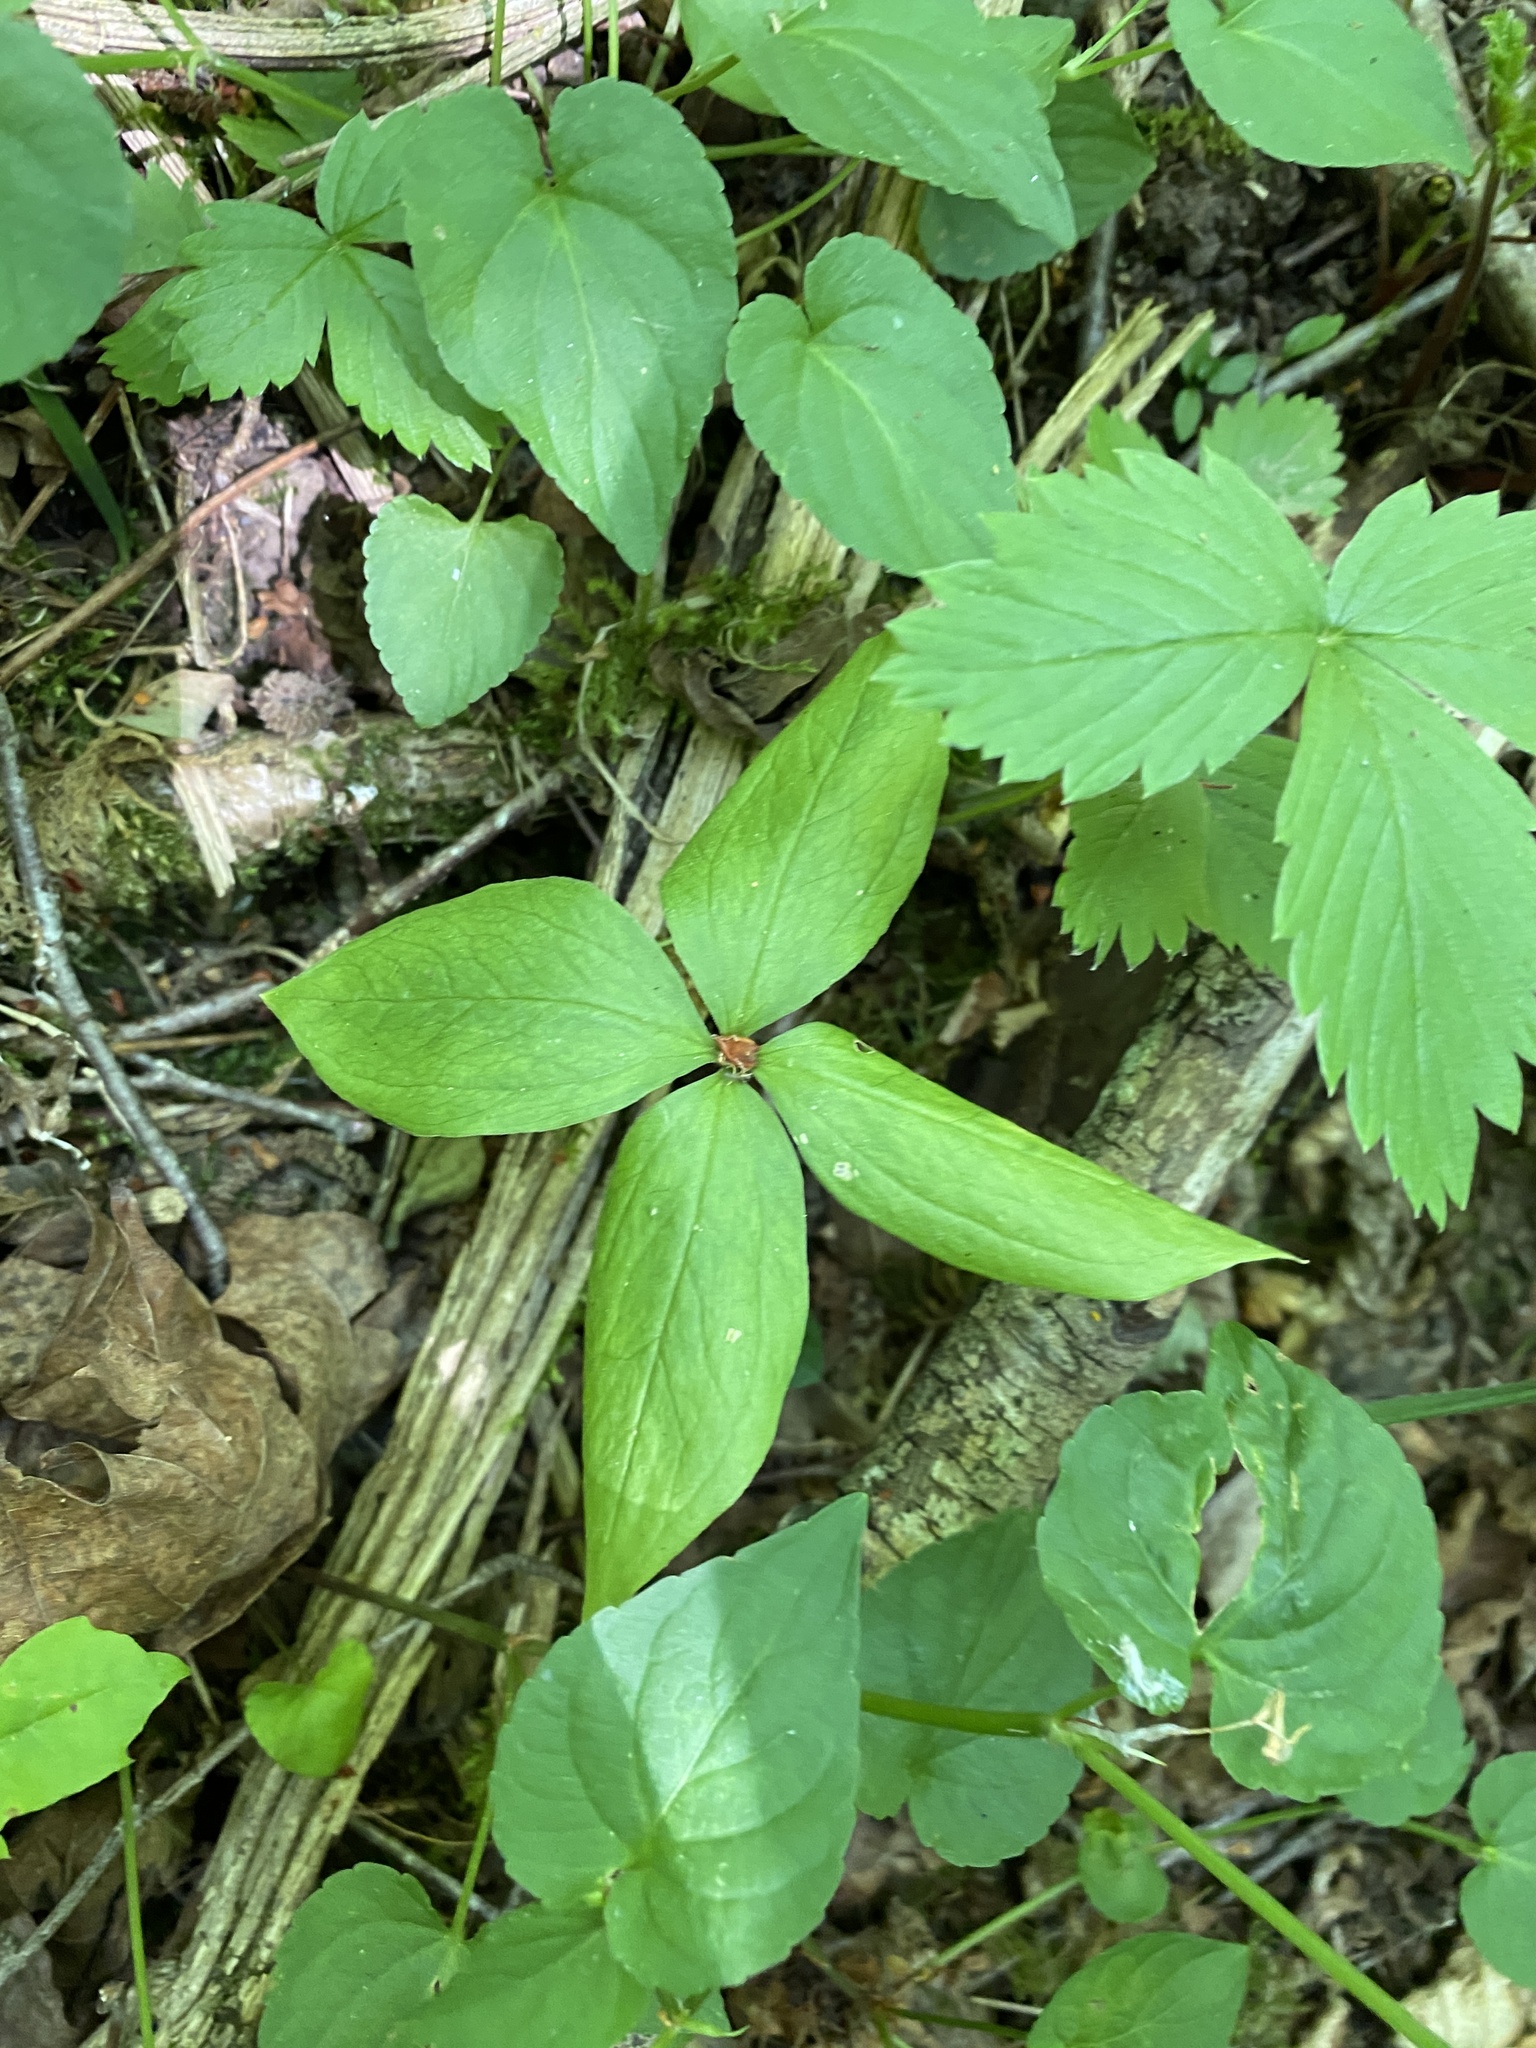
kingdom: Plantae
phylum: Tracheophyta
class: Liliopsida
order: Liliales
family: Melanthiaceae
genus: Paris
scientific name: Paris quadrifolia
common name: Herb-paris
